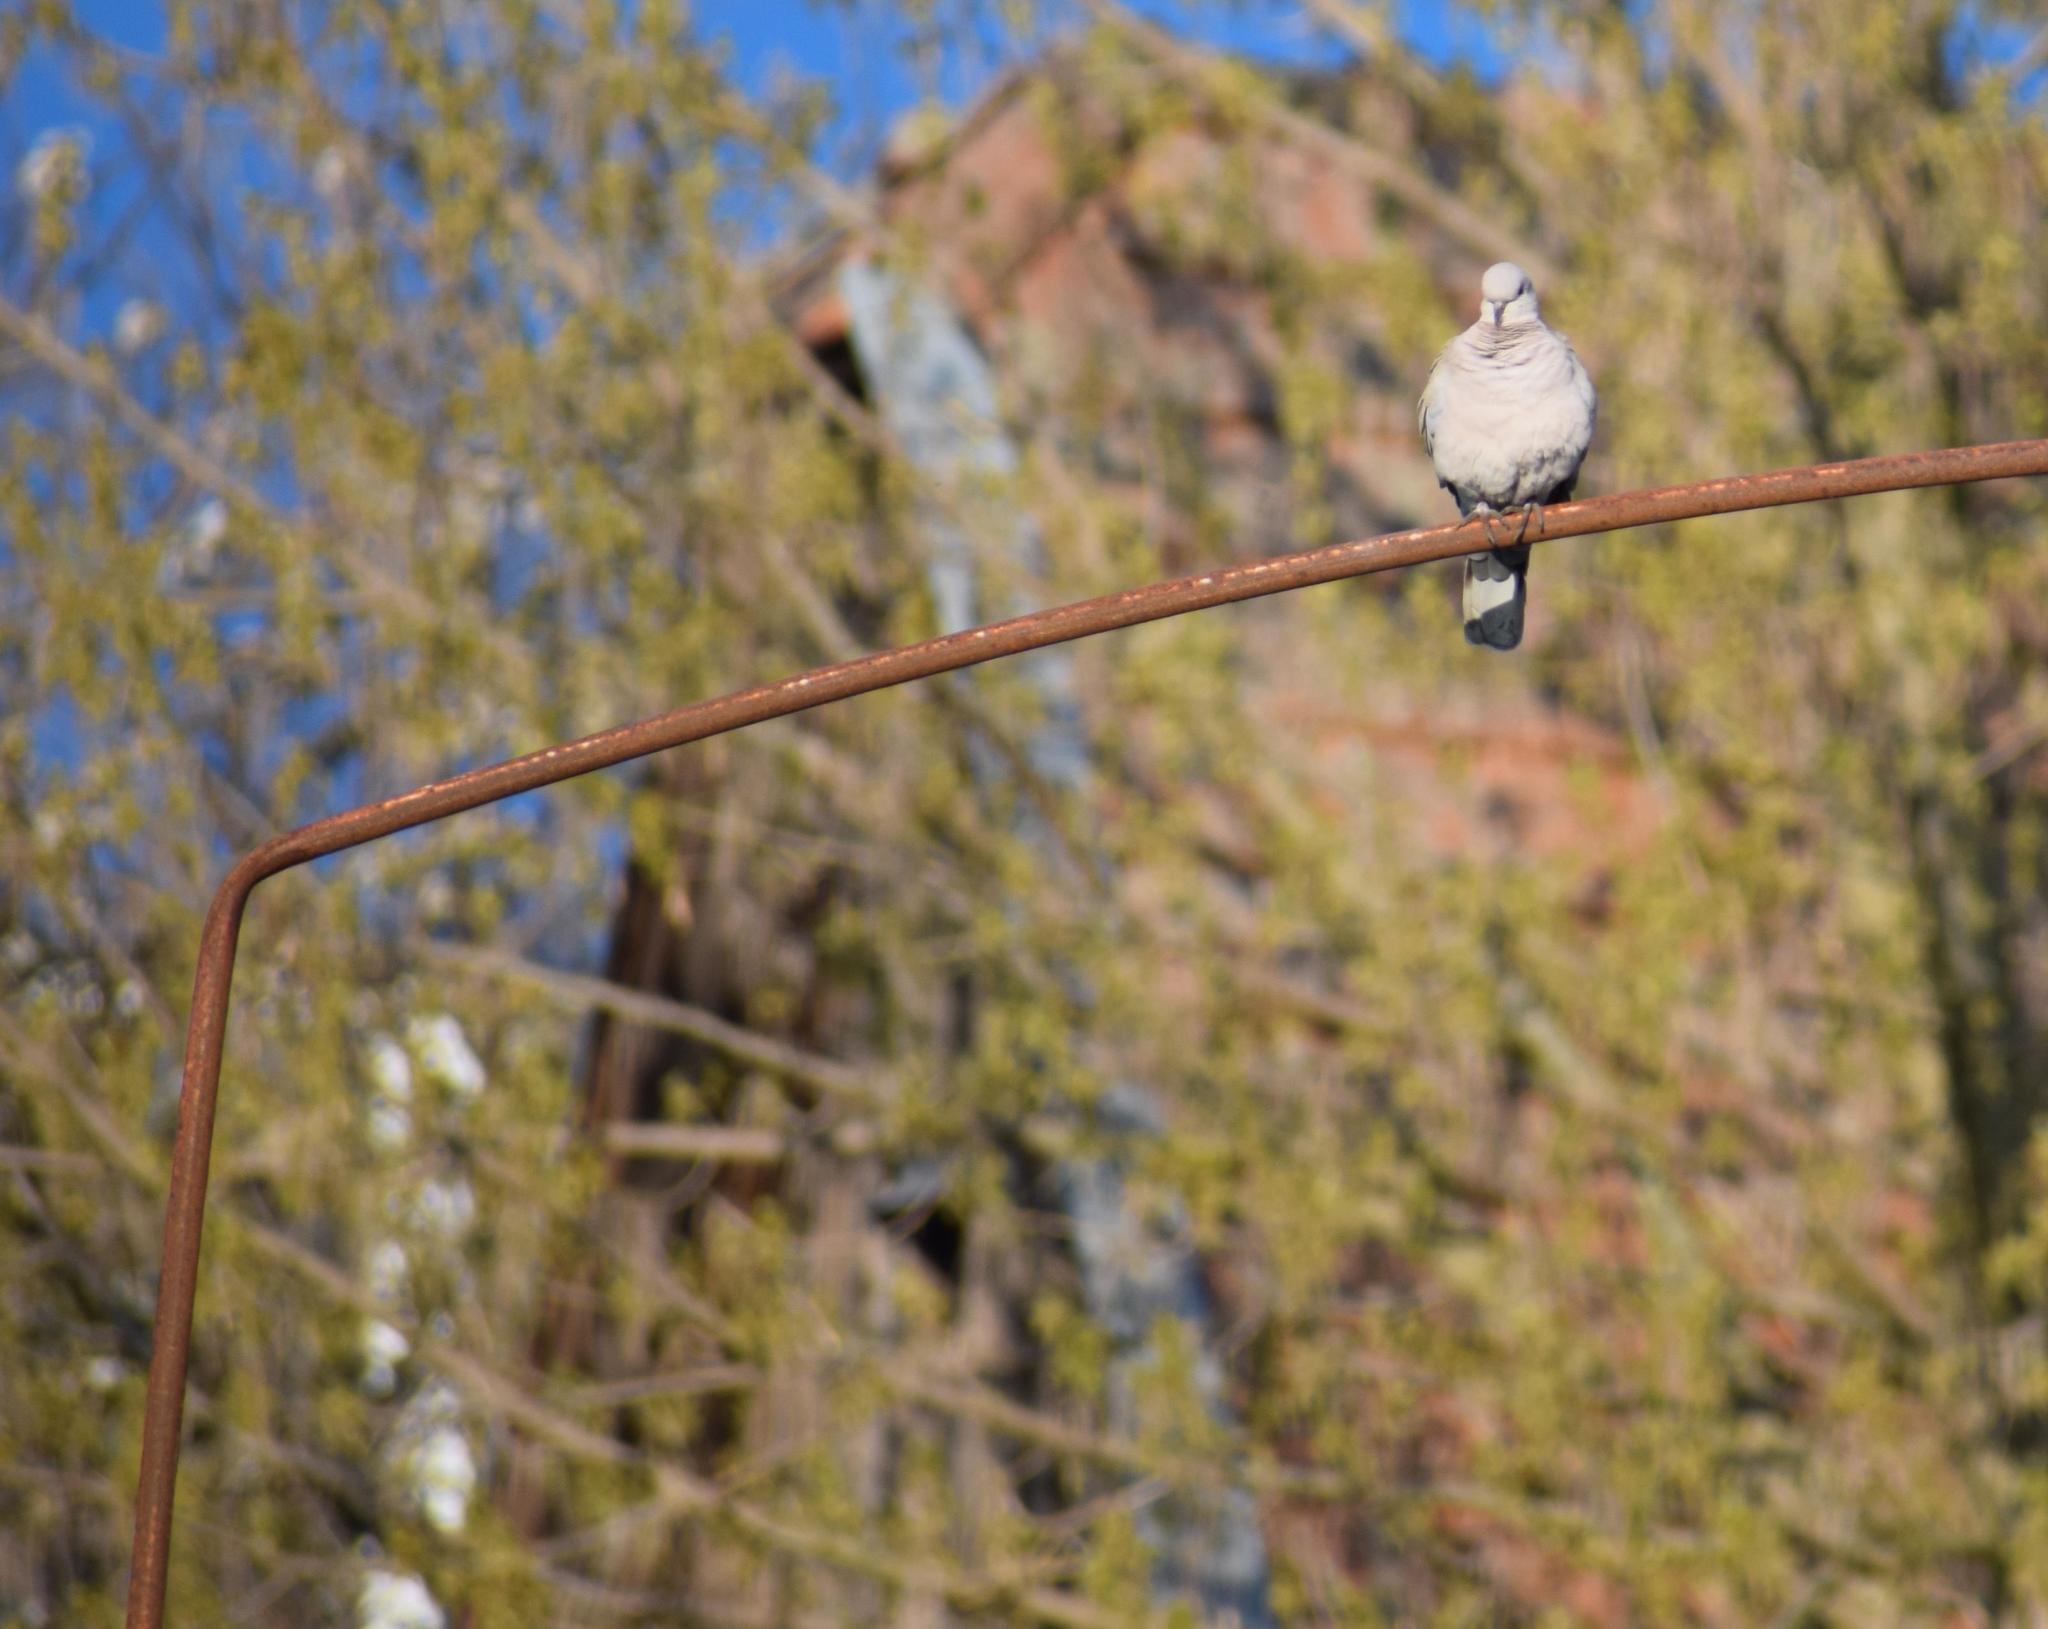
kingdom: Animalia
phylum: Chordata
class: Aves
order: Columbiformes
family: Columbidae
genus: Streptopelia
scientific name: Streptopelia decaocto
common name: Eurasian collared dove
